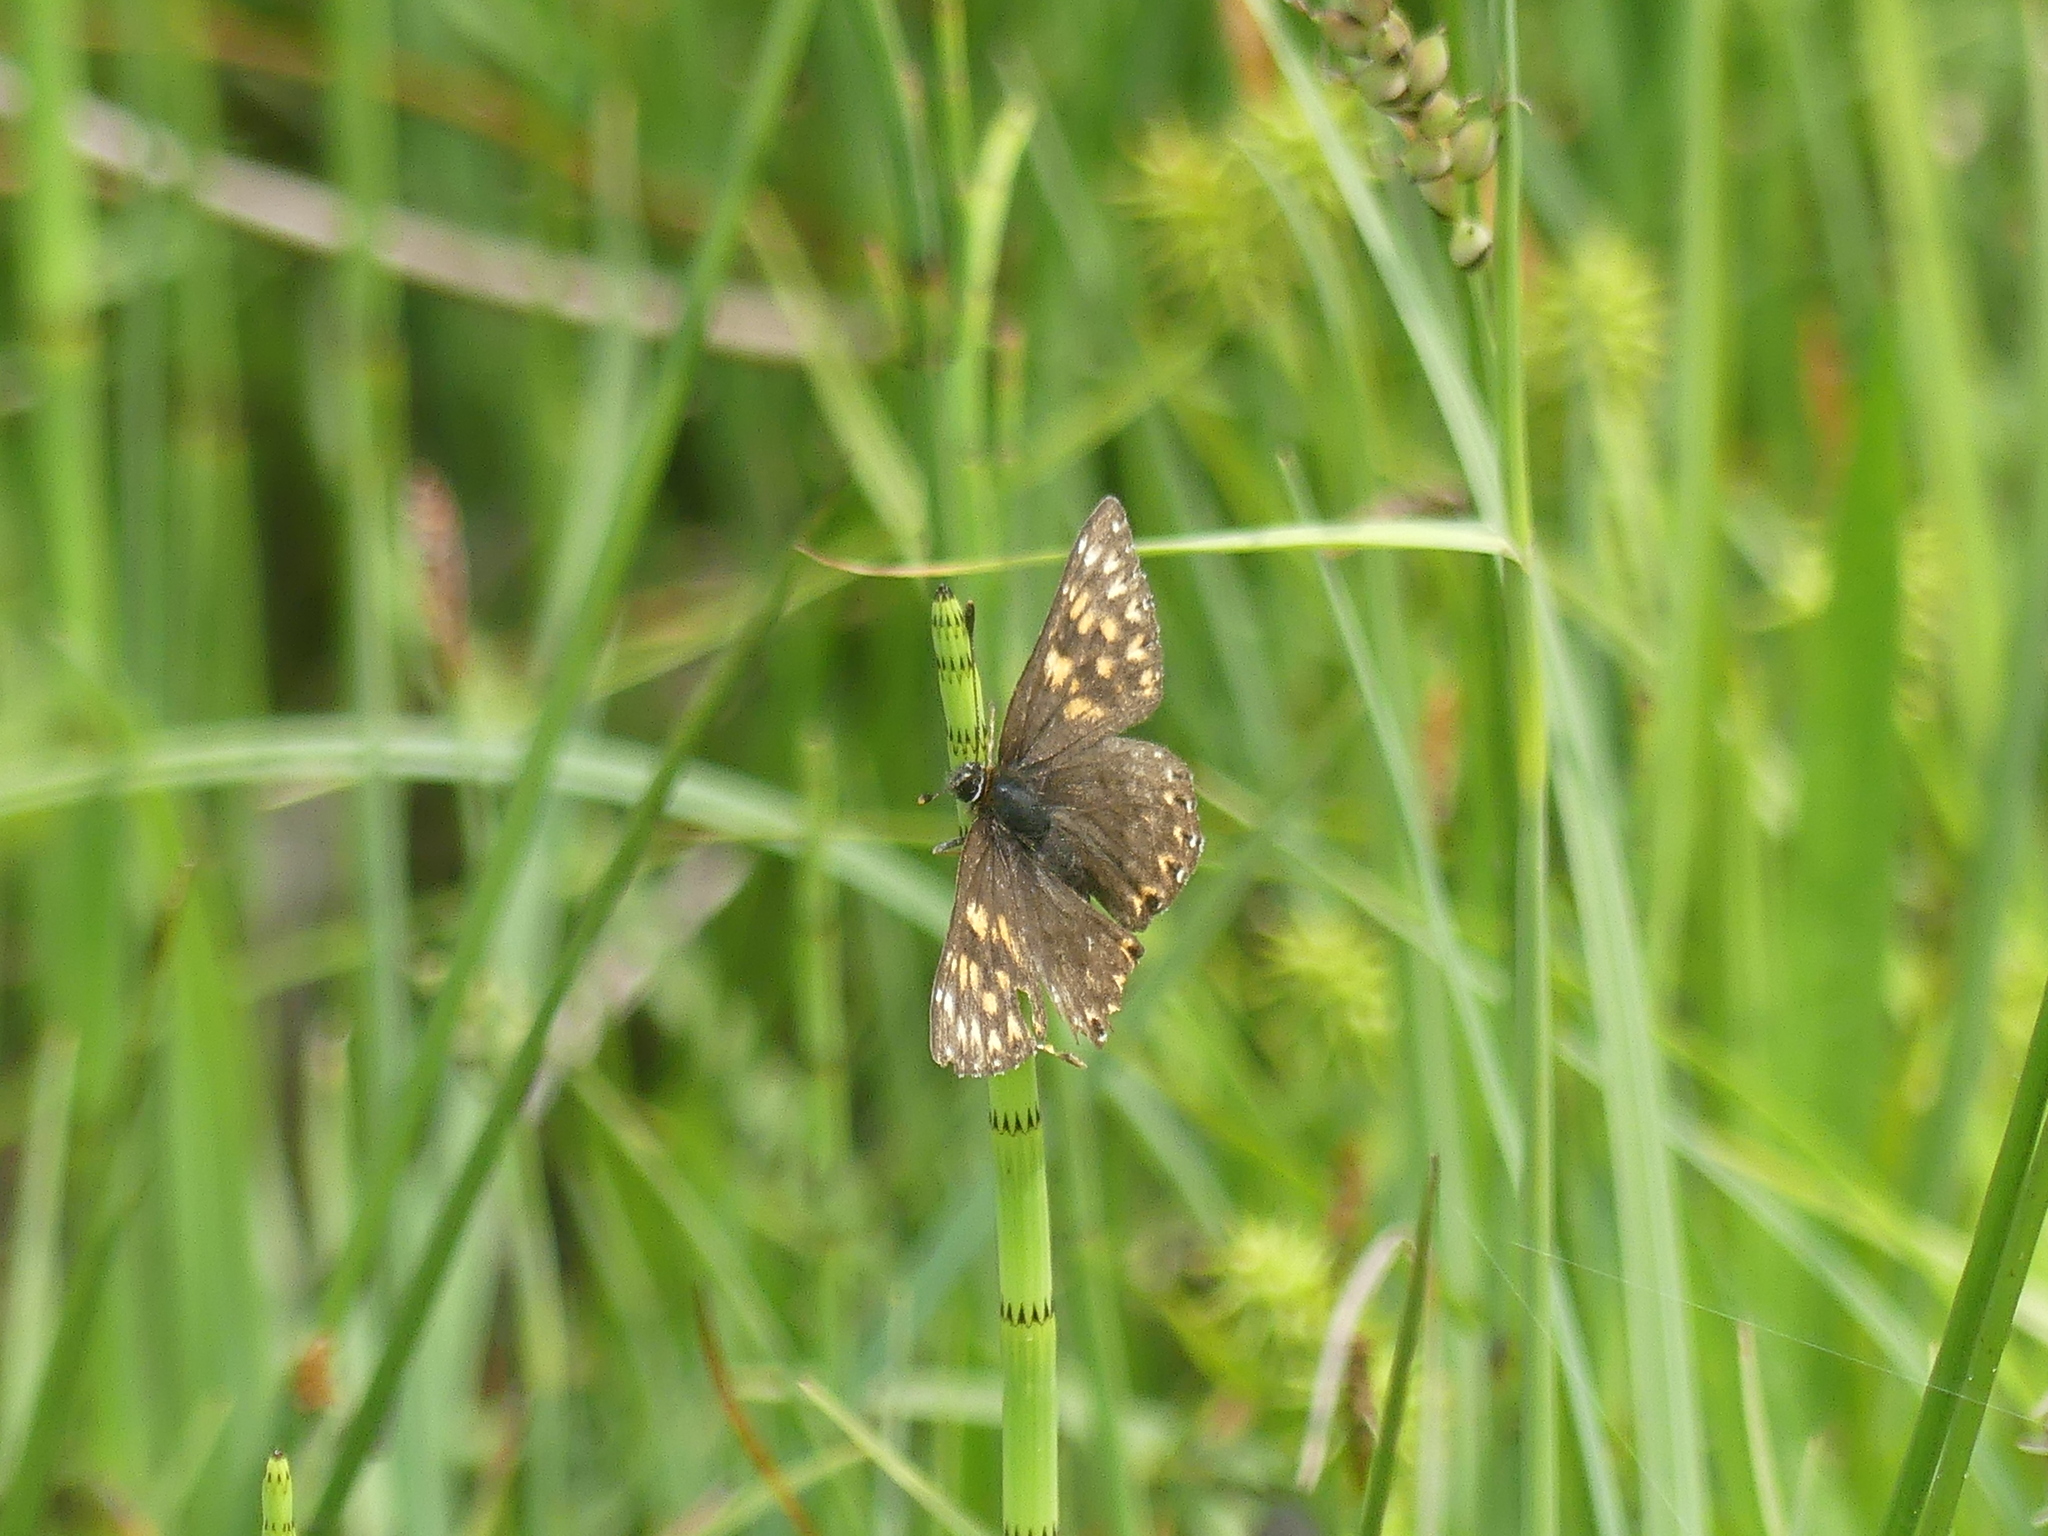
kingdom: Animalia
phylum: Arthropoda
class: Insecta
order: Lepidoptera
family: Riodinidae
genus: Hamearis
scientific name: Hamearis lucina
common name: Duke of burgundy fritillary
